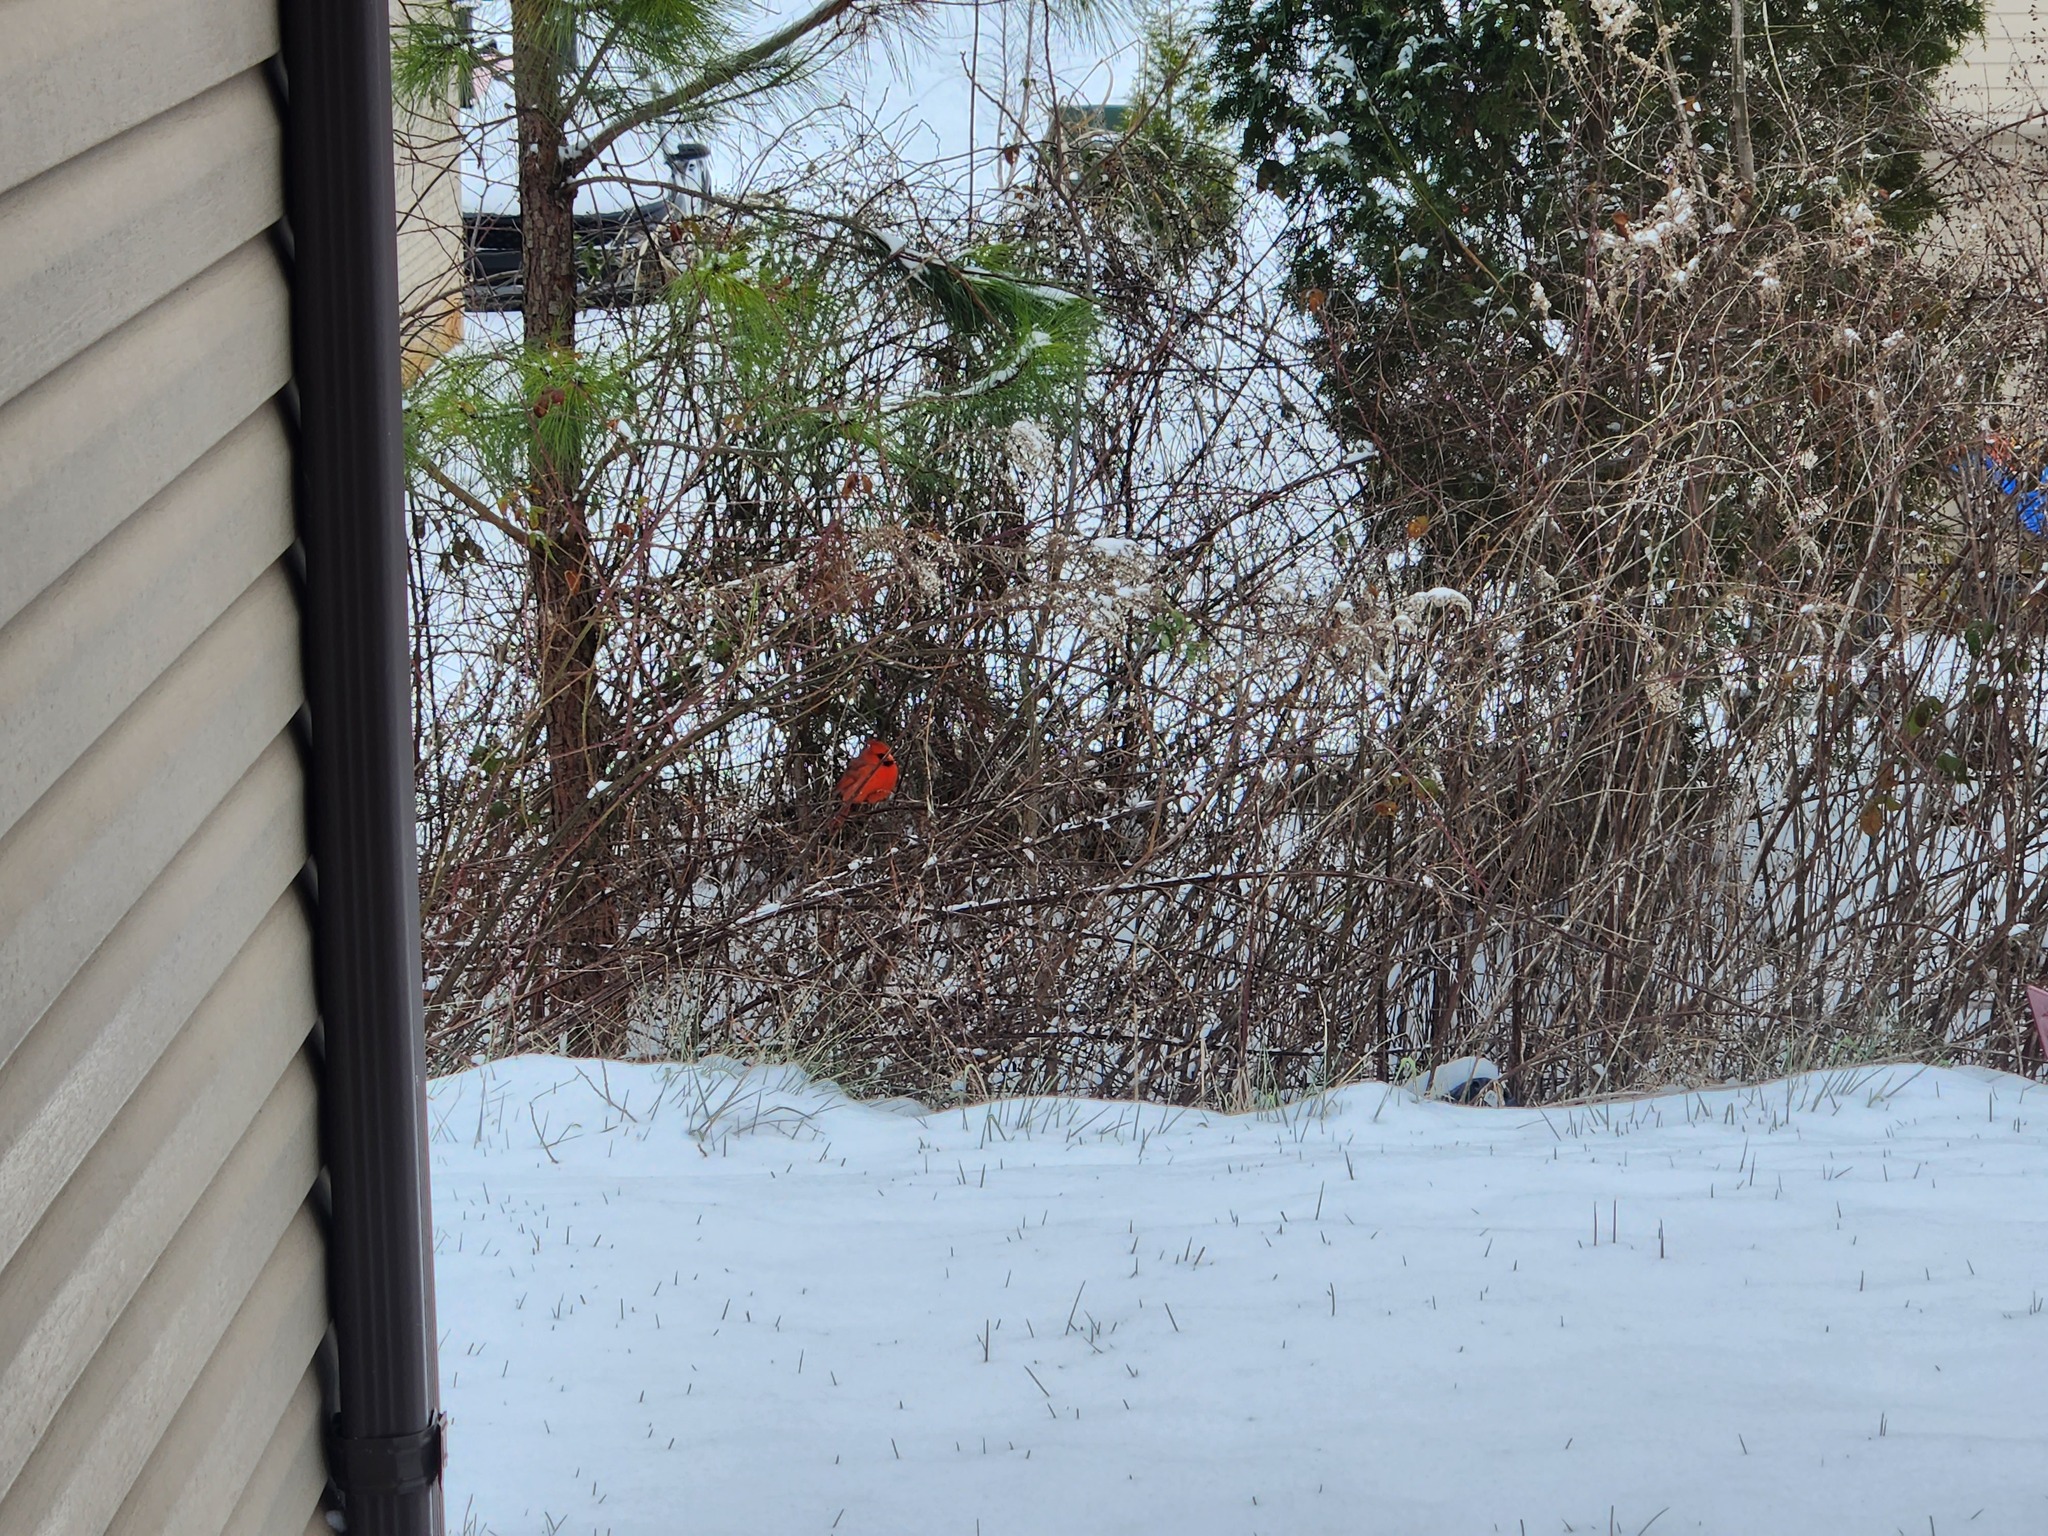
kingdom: Animalia
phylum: Chordata
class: Aves
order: Passeriformes
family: Cardinalidae
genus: Cardinalis
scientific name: Cardinalis cardinalis
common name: Northern cardinal
